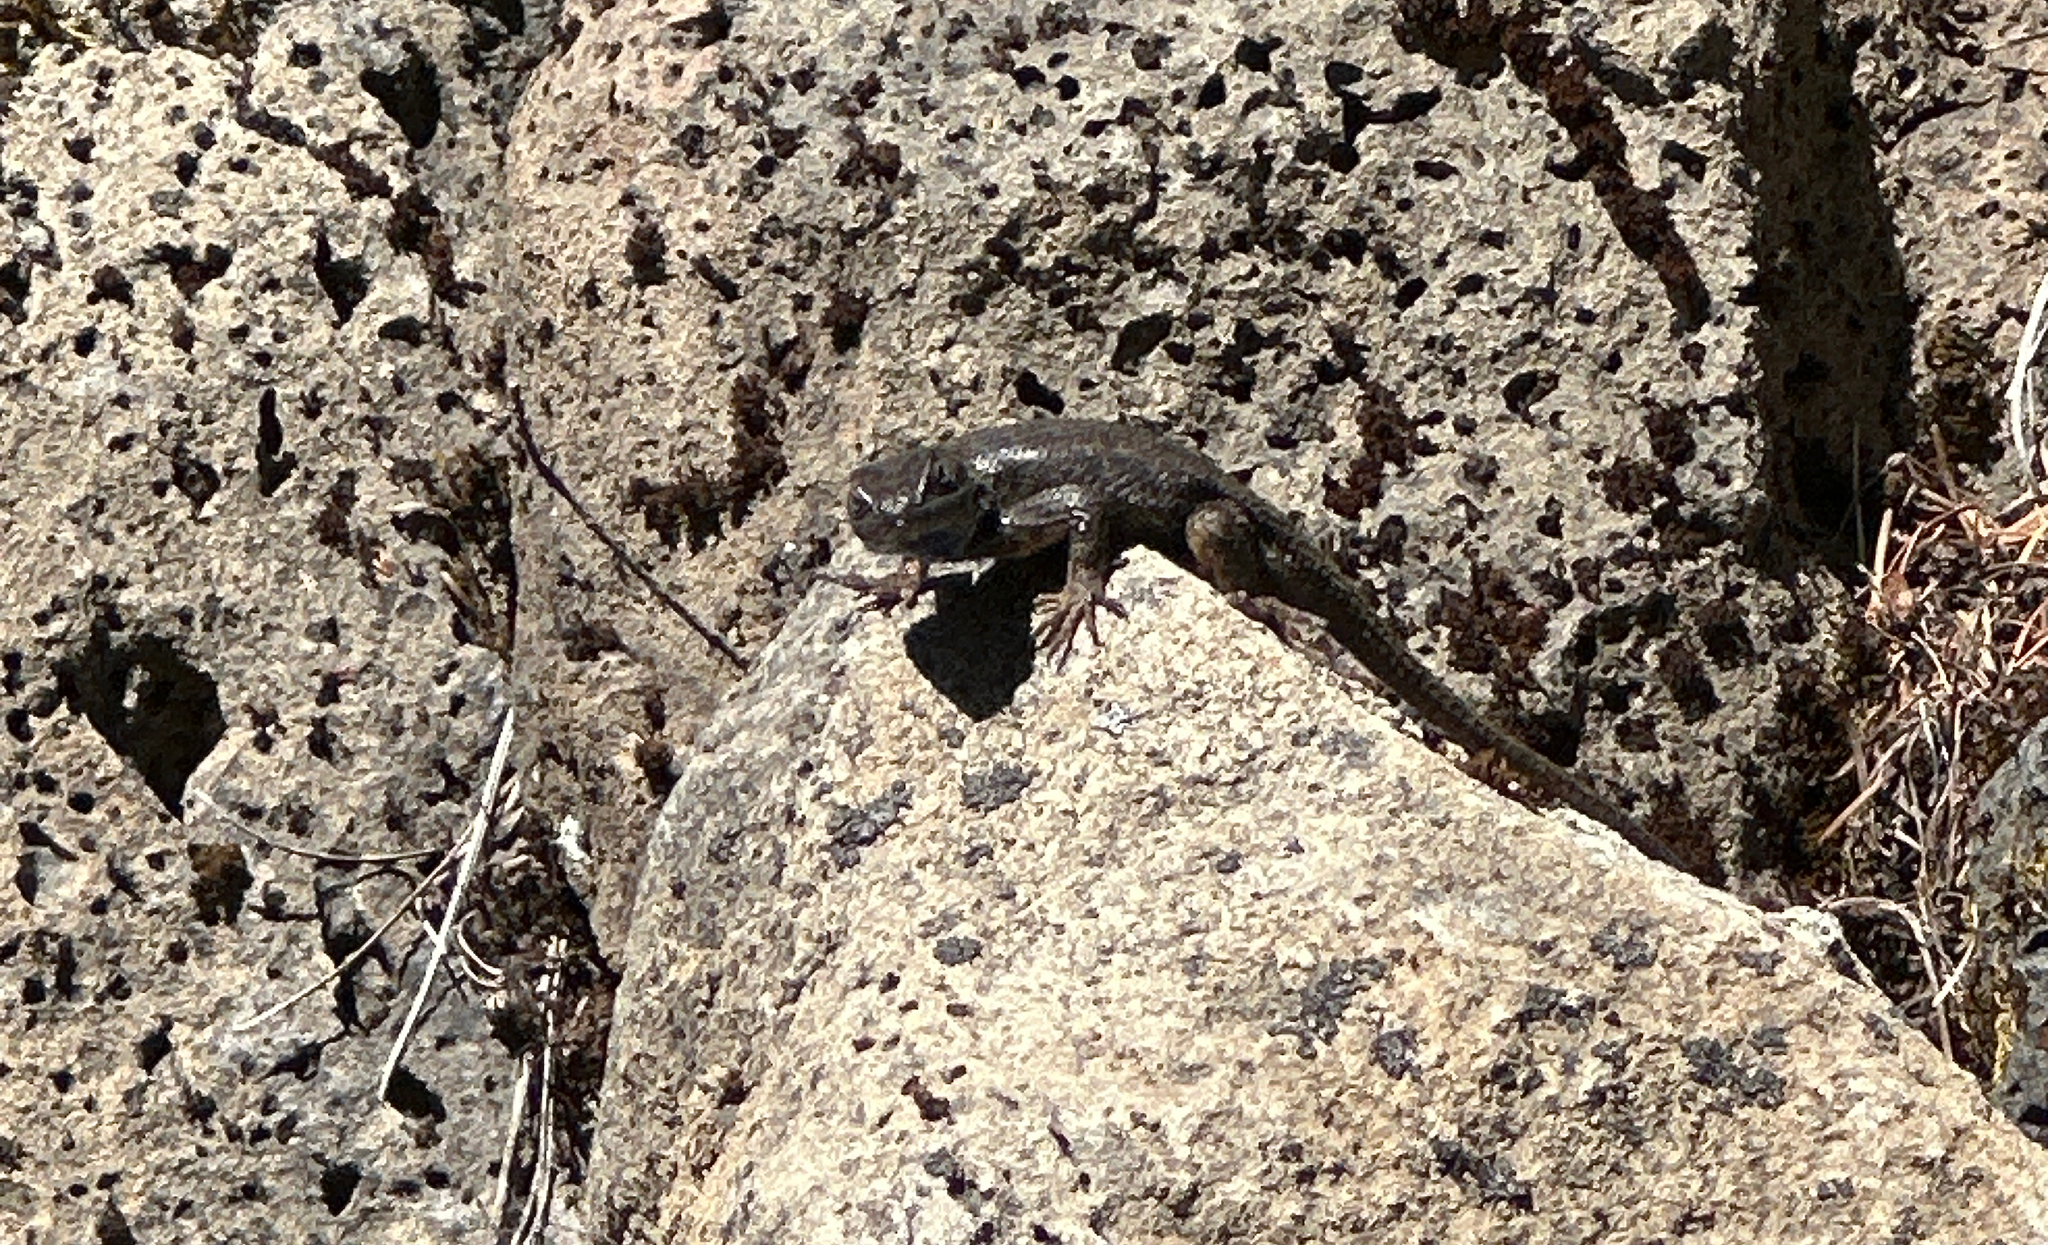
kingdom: Animalia
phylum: Chordata
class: Squamata
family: Phrynosomatidae
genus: Sceloporus
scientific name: Sceloporus occidentalis
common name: Western fence lizard
